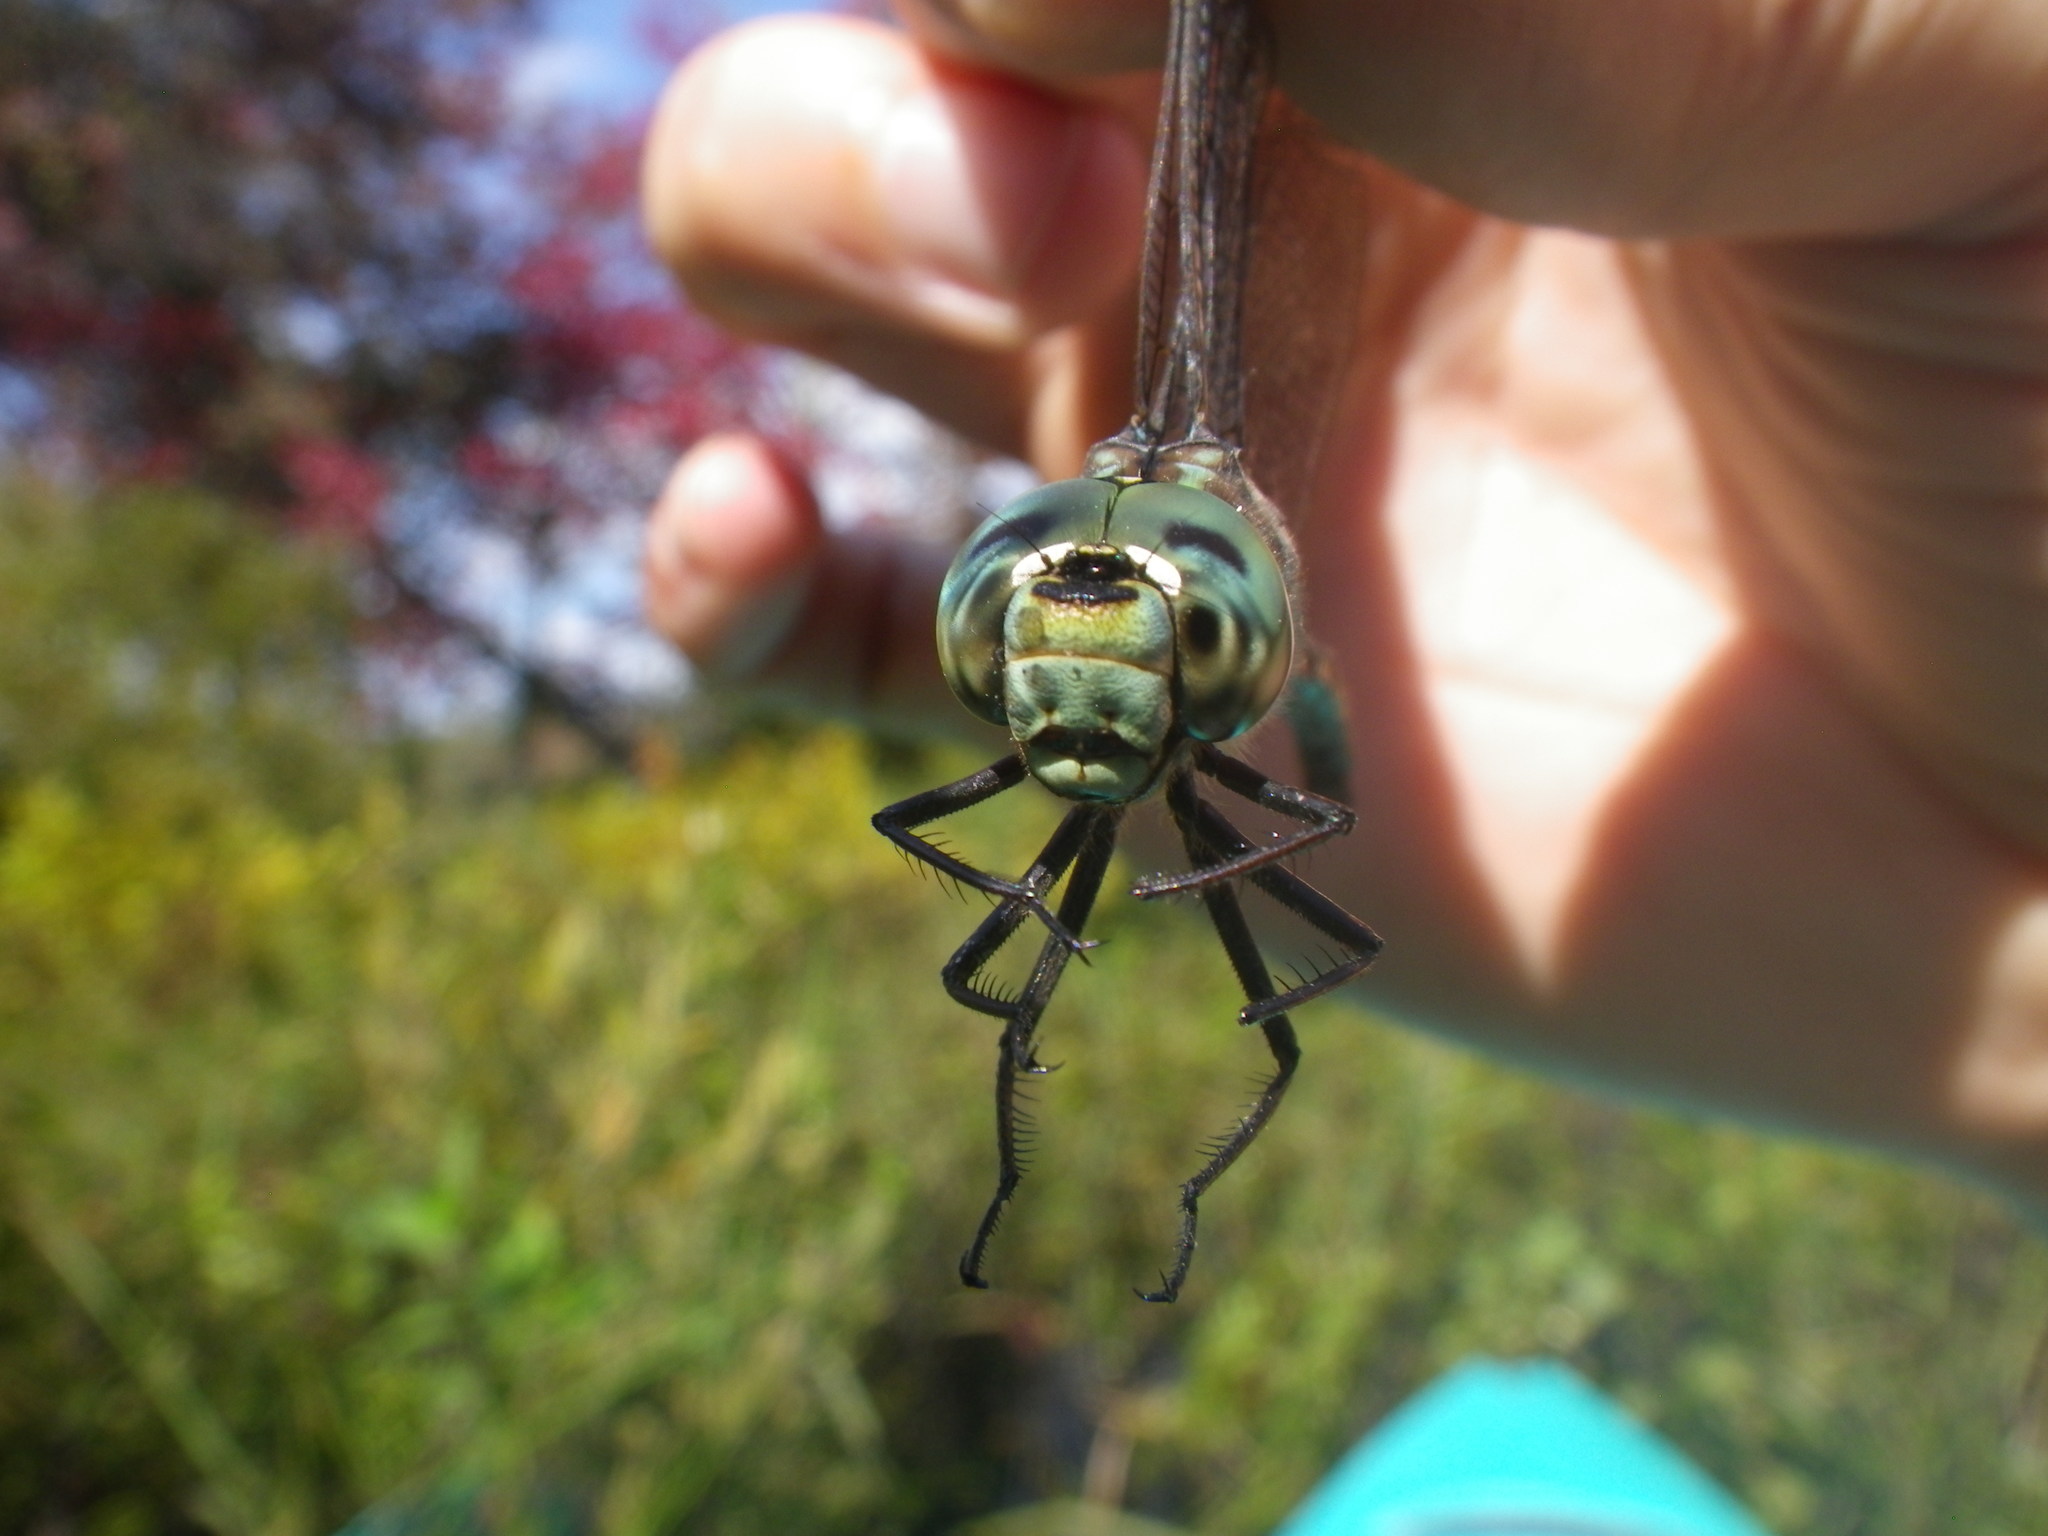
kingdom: Animalia
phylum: Arthropoda
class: Insecta
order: Odonata
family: Aeshnidae
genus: Aeshna
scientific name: Aeshna canadensis
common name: Canada darner
